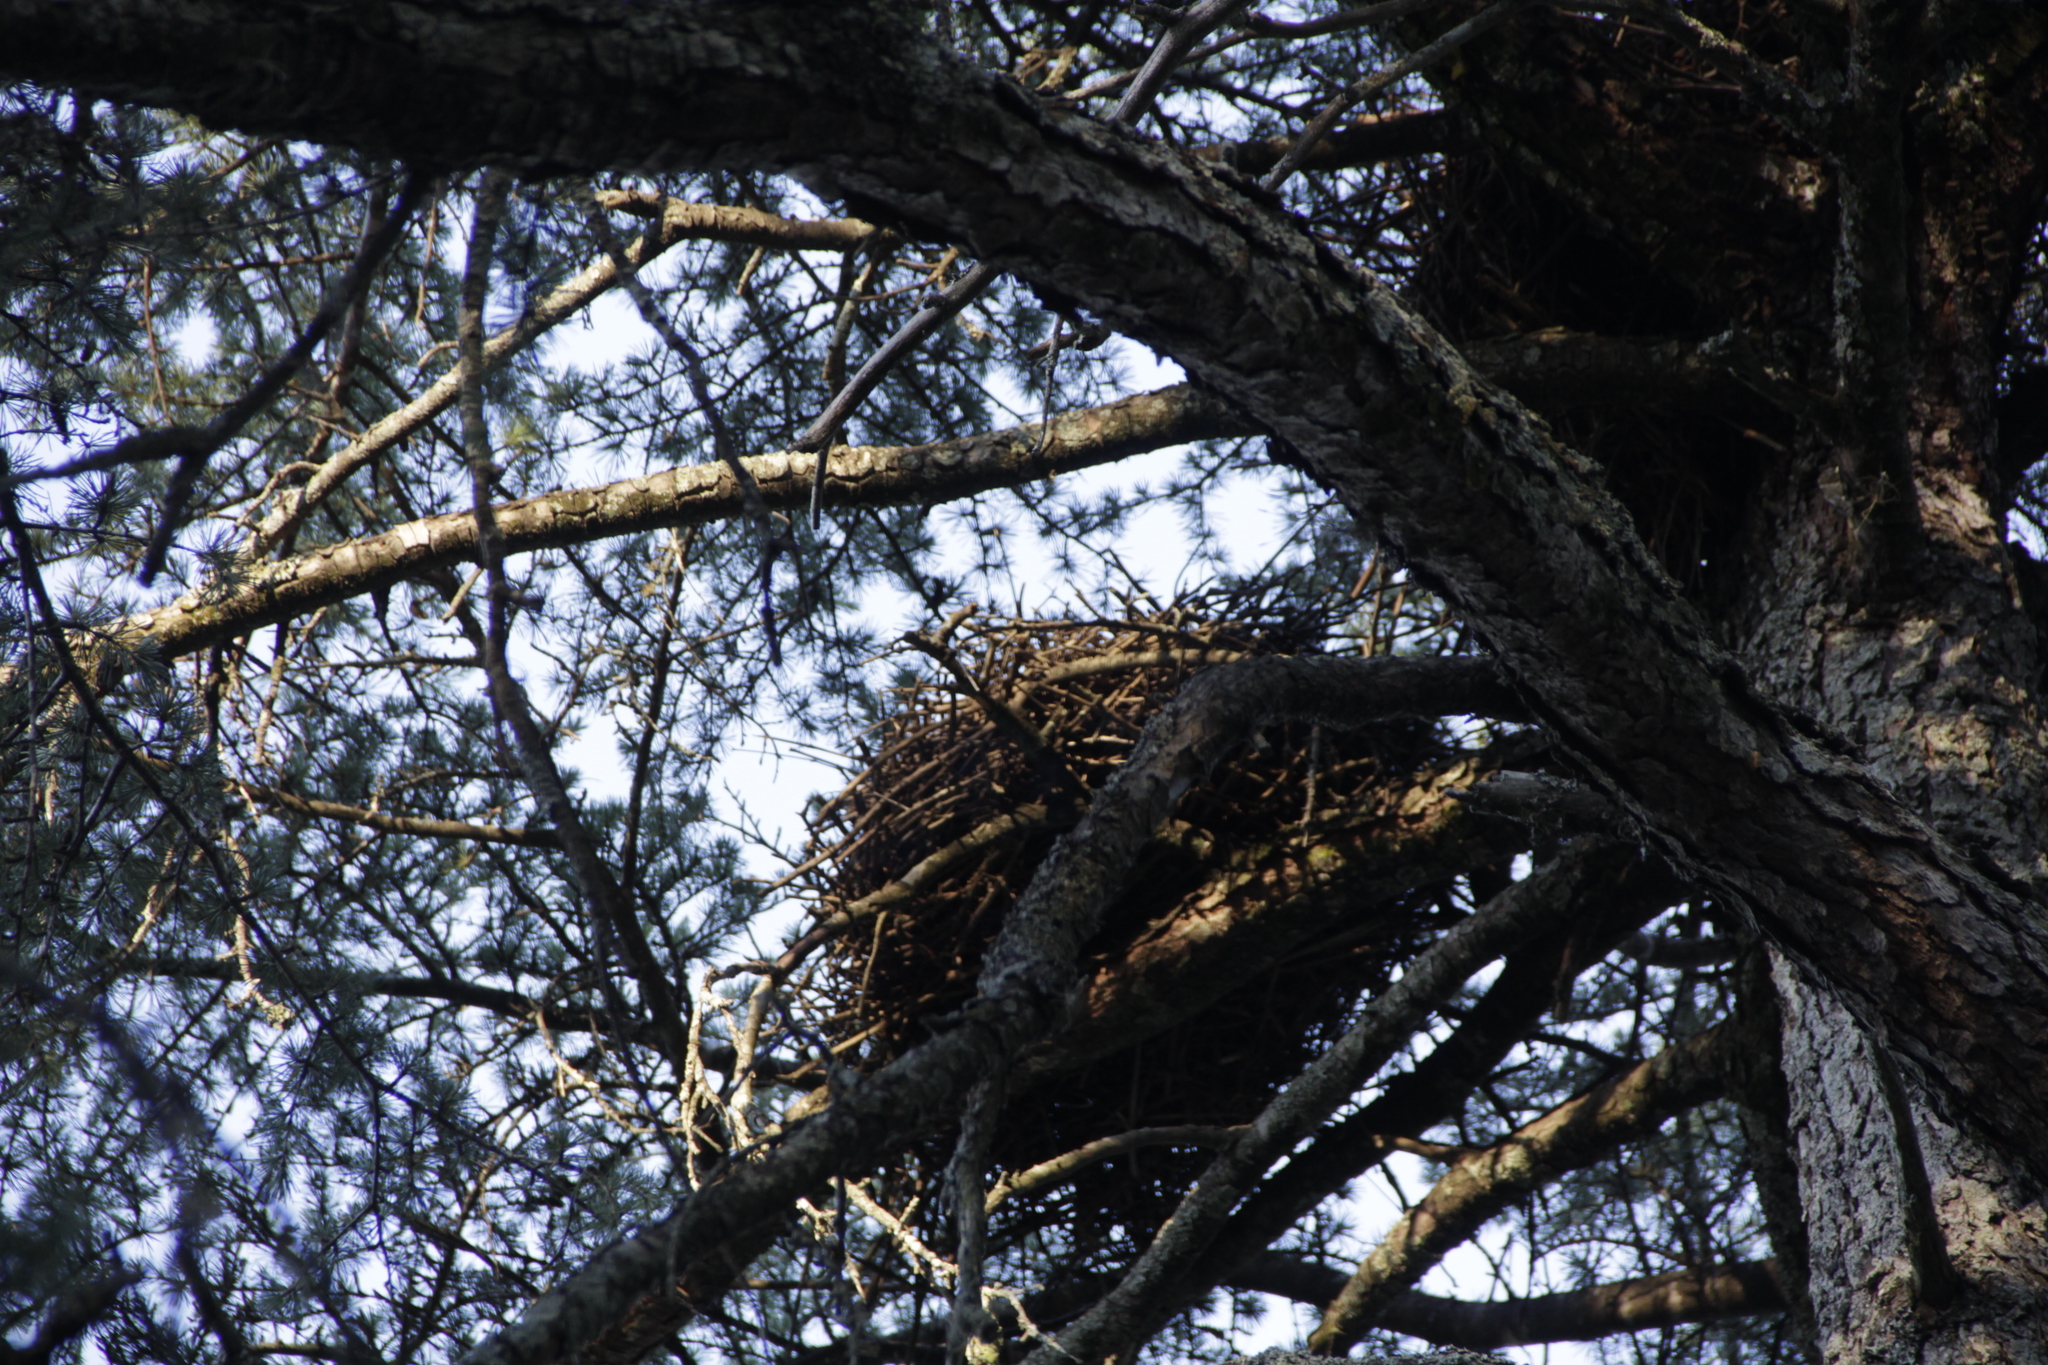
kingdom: Animalia
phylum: Chordata
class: Aves
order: Strigiformes
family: Strigidae
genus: Bubo
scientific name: Bubo virginianus
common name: Great horned owl
